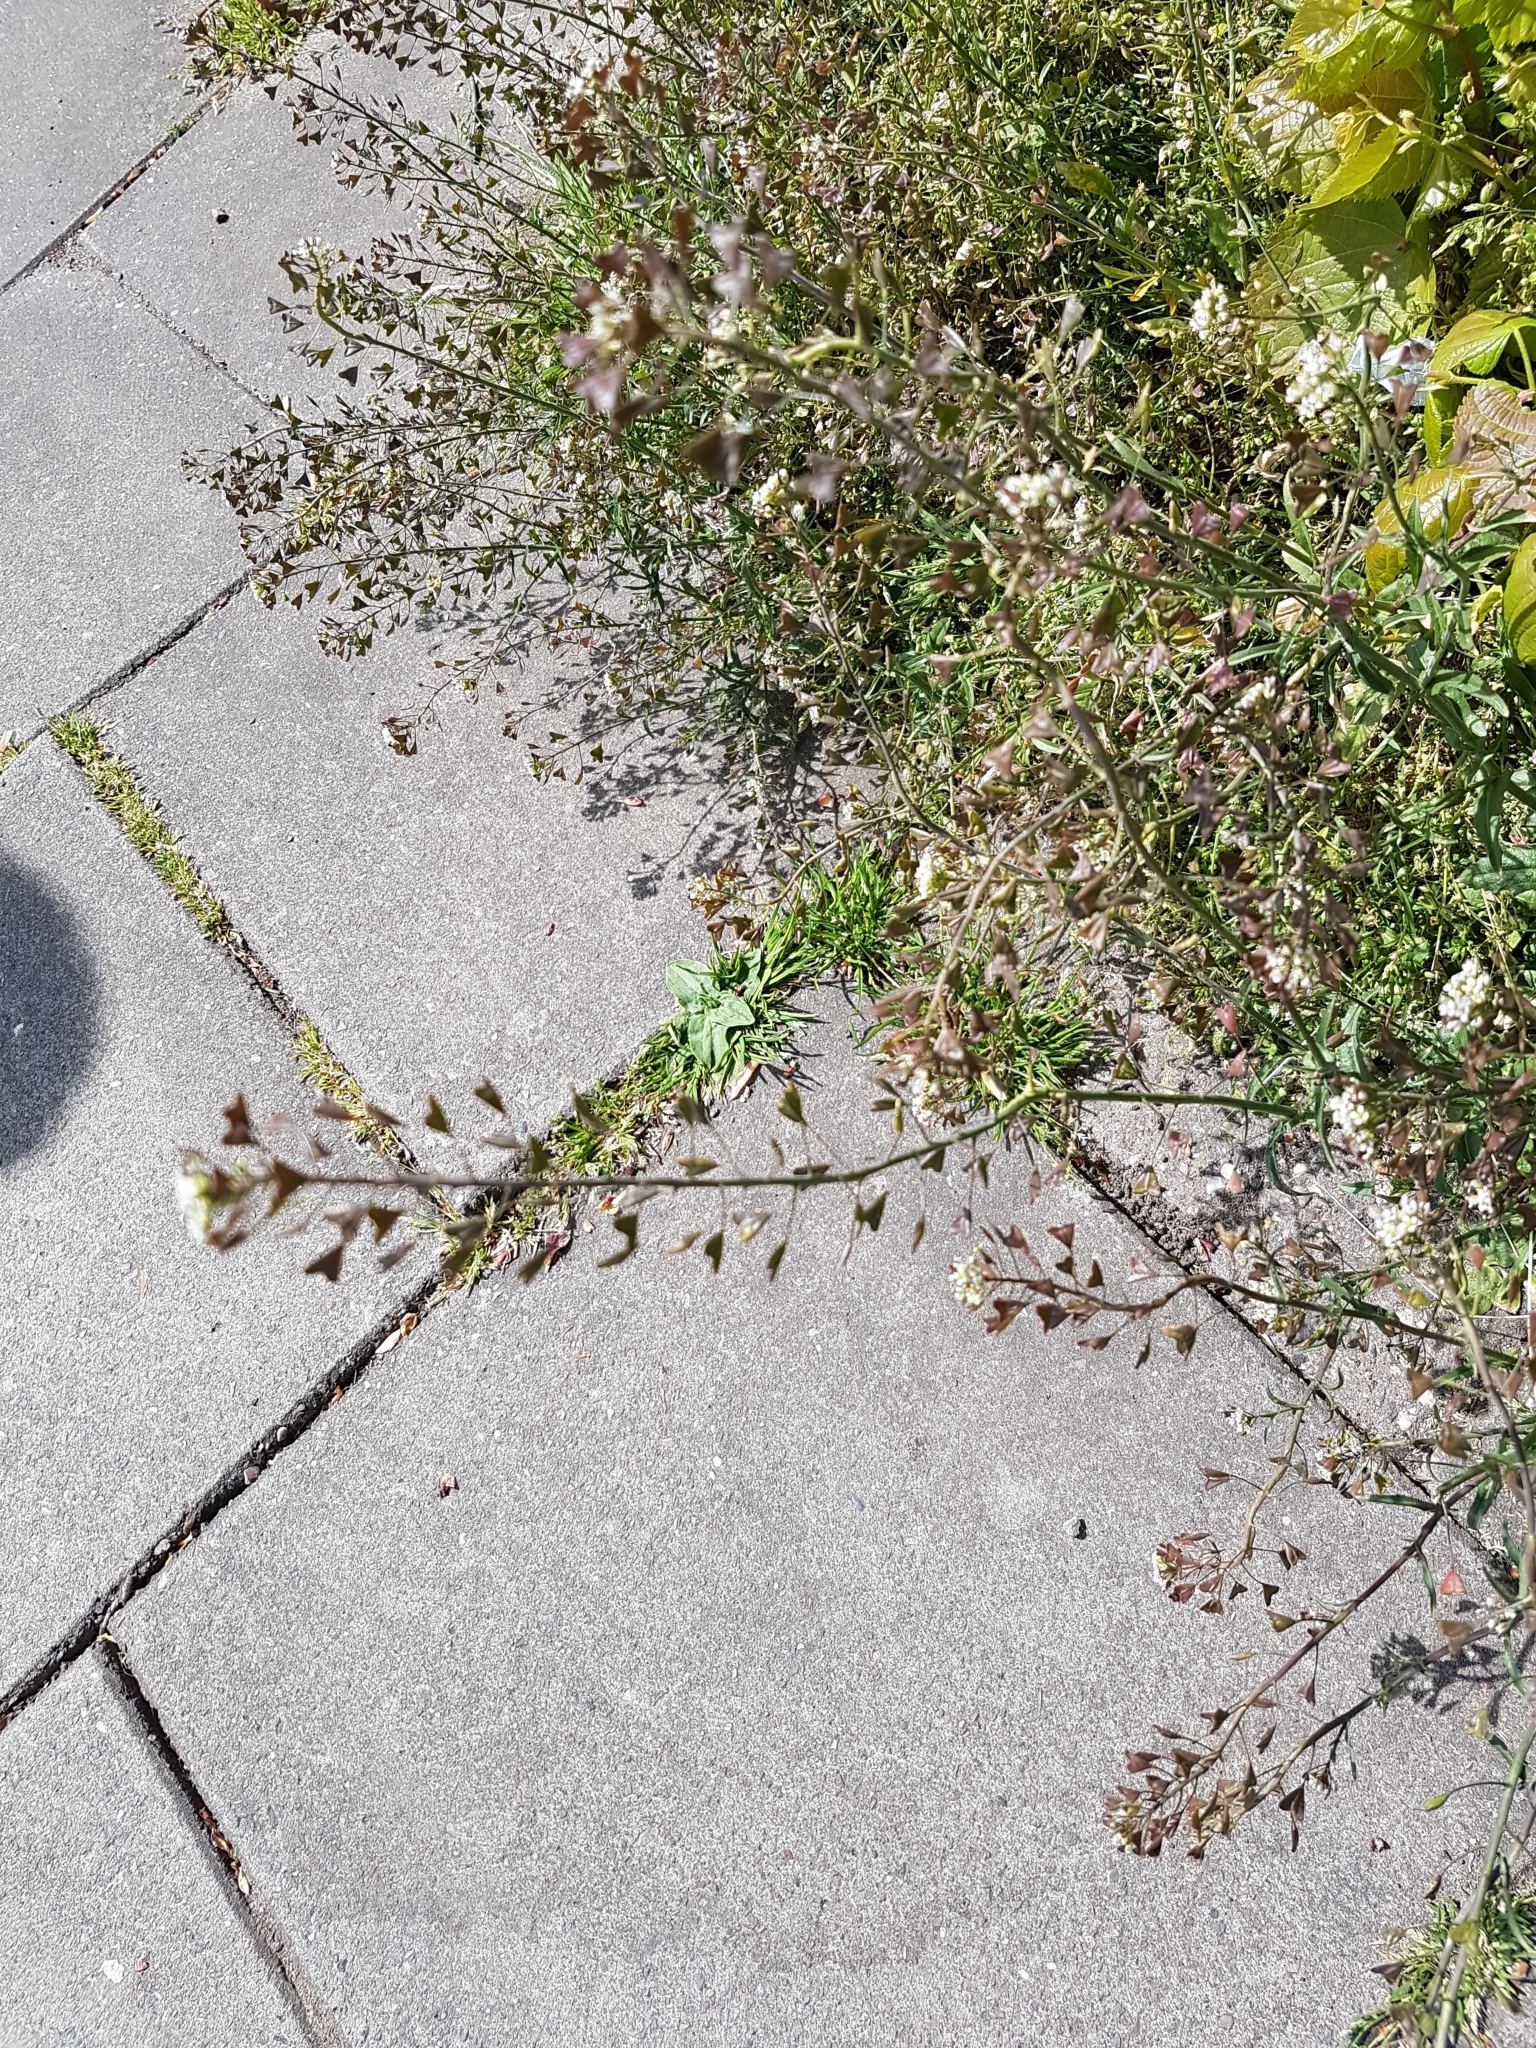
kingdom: Plantae
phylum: Tracheophyta
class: Magnoliopsida
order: Brassicales
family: Brassicaceae
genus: Capsella
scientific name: Capsella bursa-pastoris
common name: Shepherd's purse
